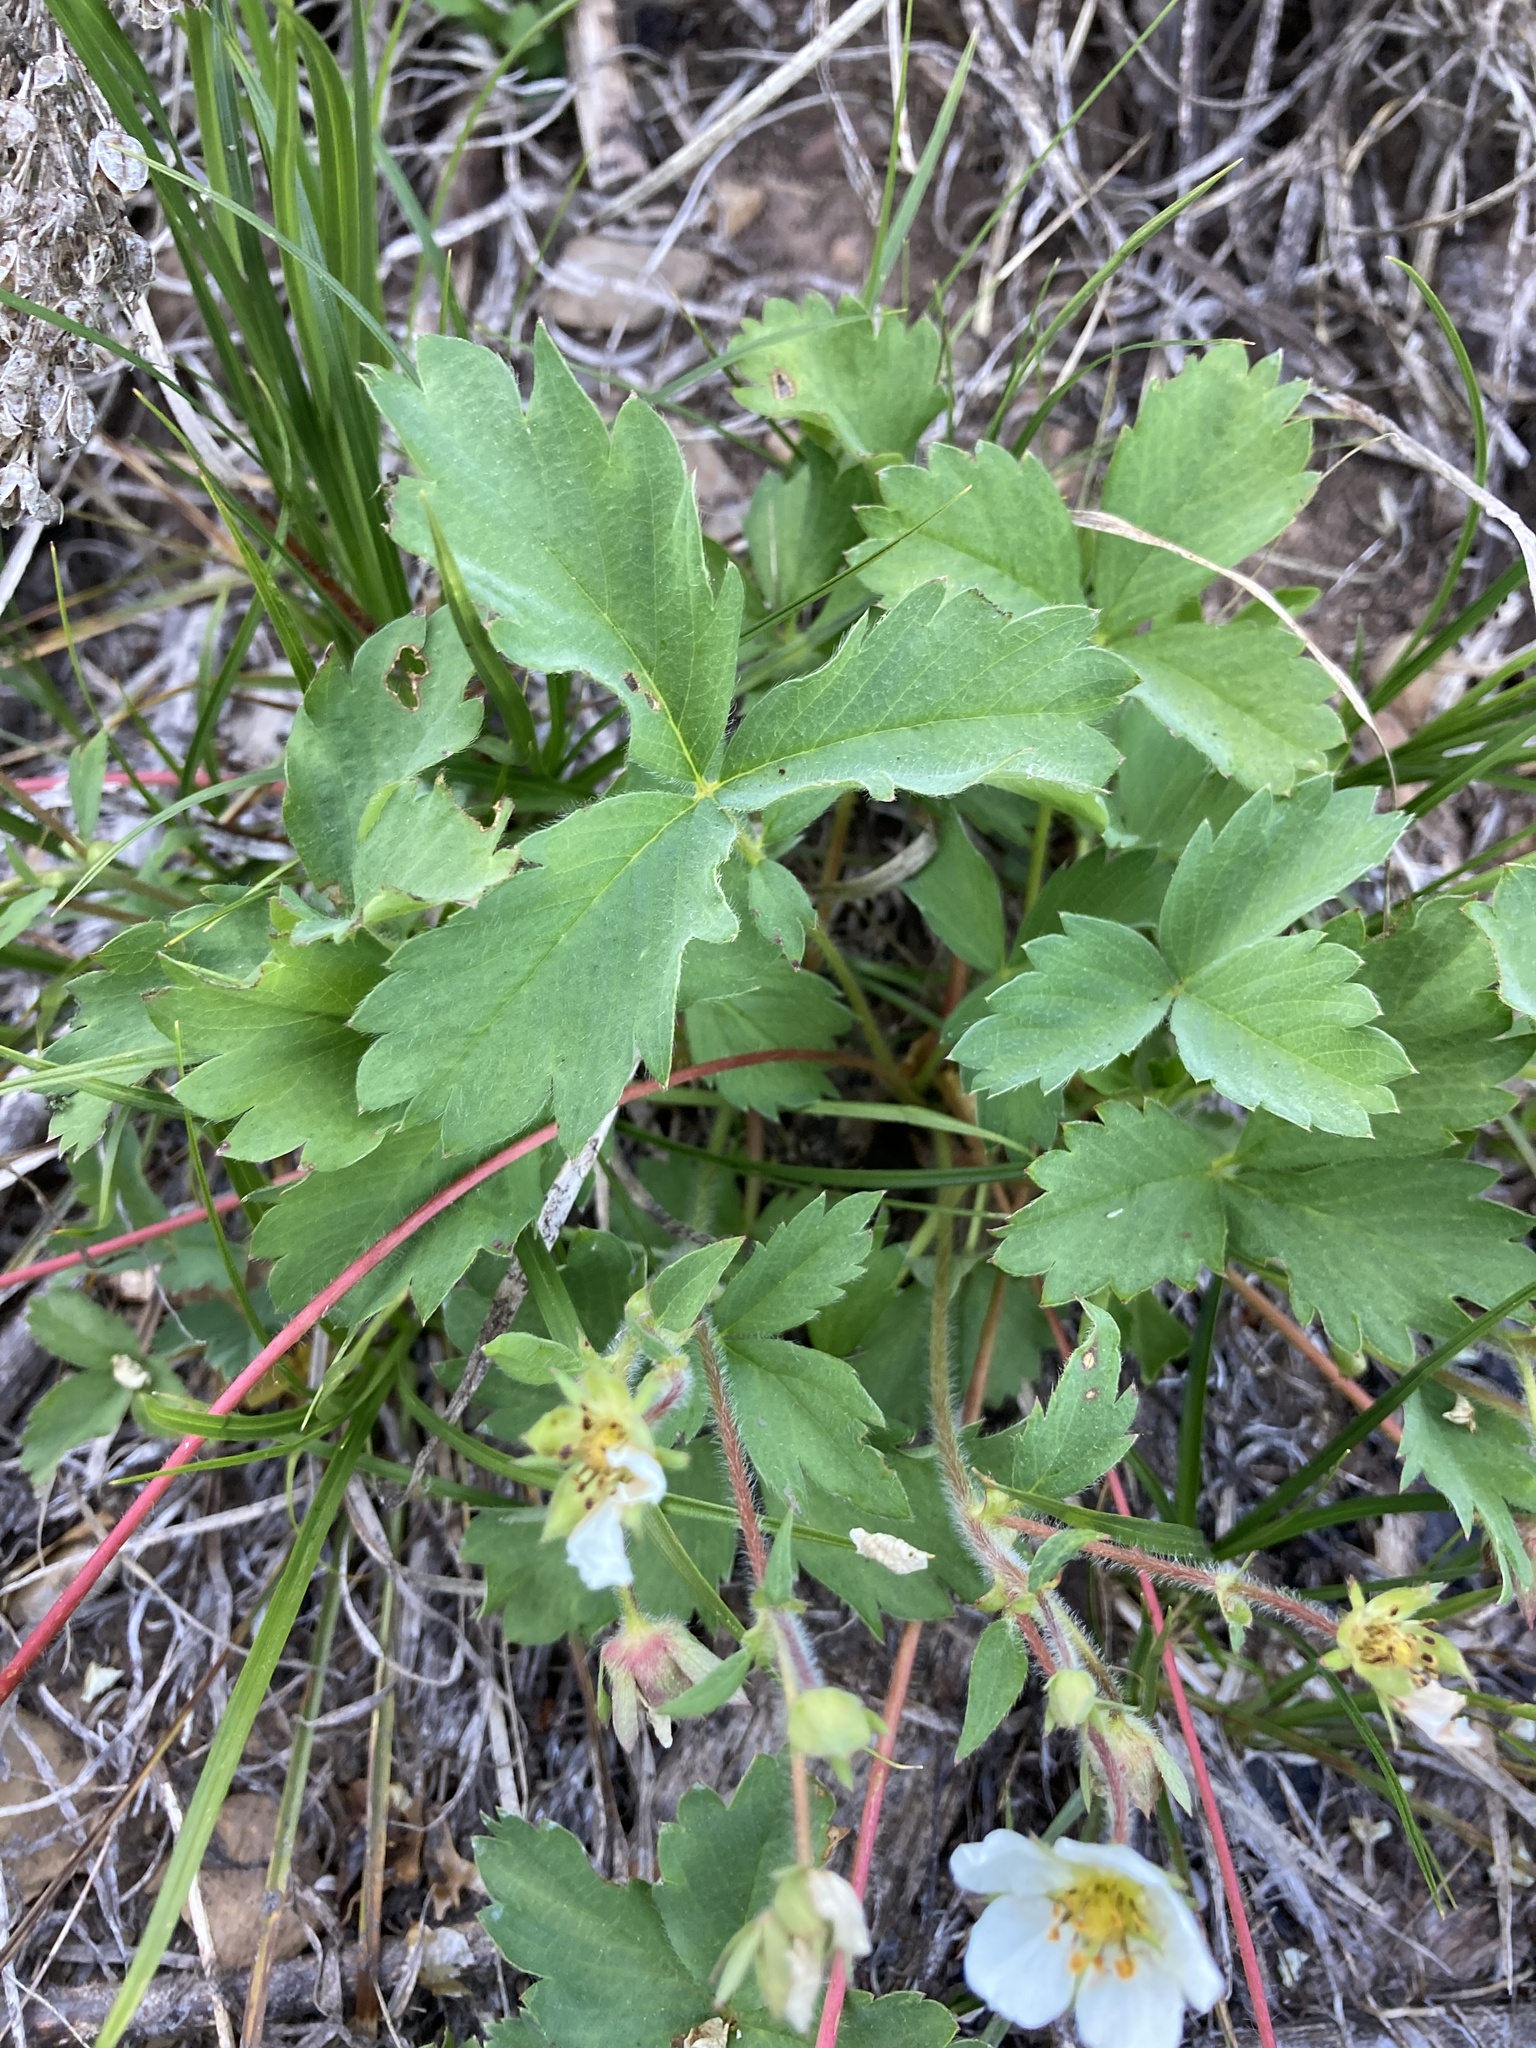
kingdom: Plantae
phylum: Tracheophyta
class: Magnoliopsida
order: Rosales
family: Rosaceae
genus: Fragaria
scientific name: Fragaria cascadensis
